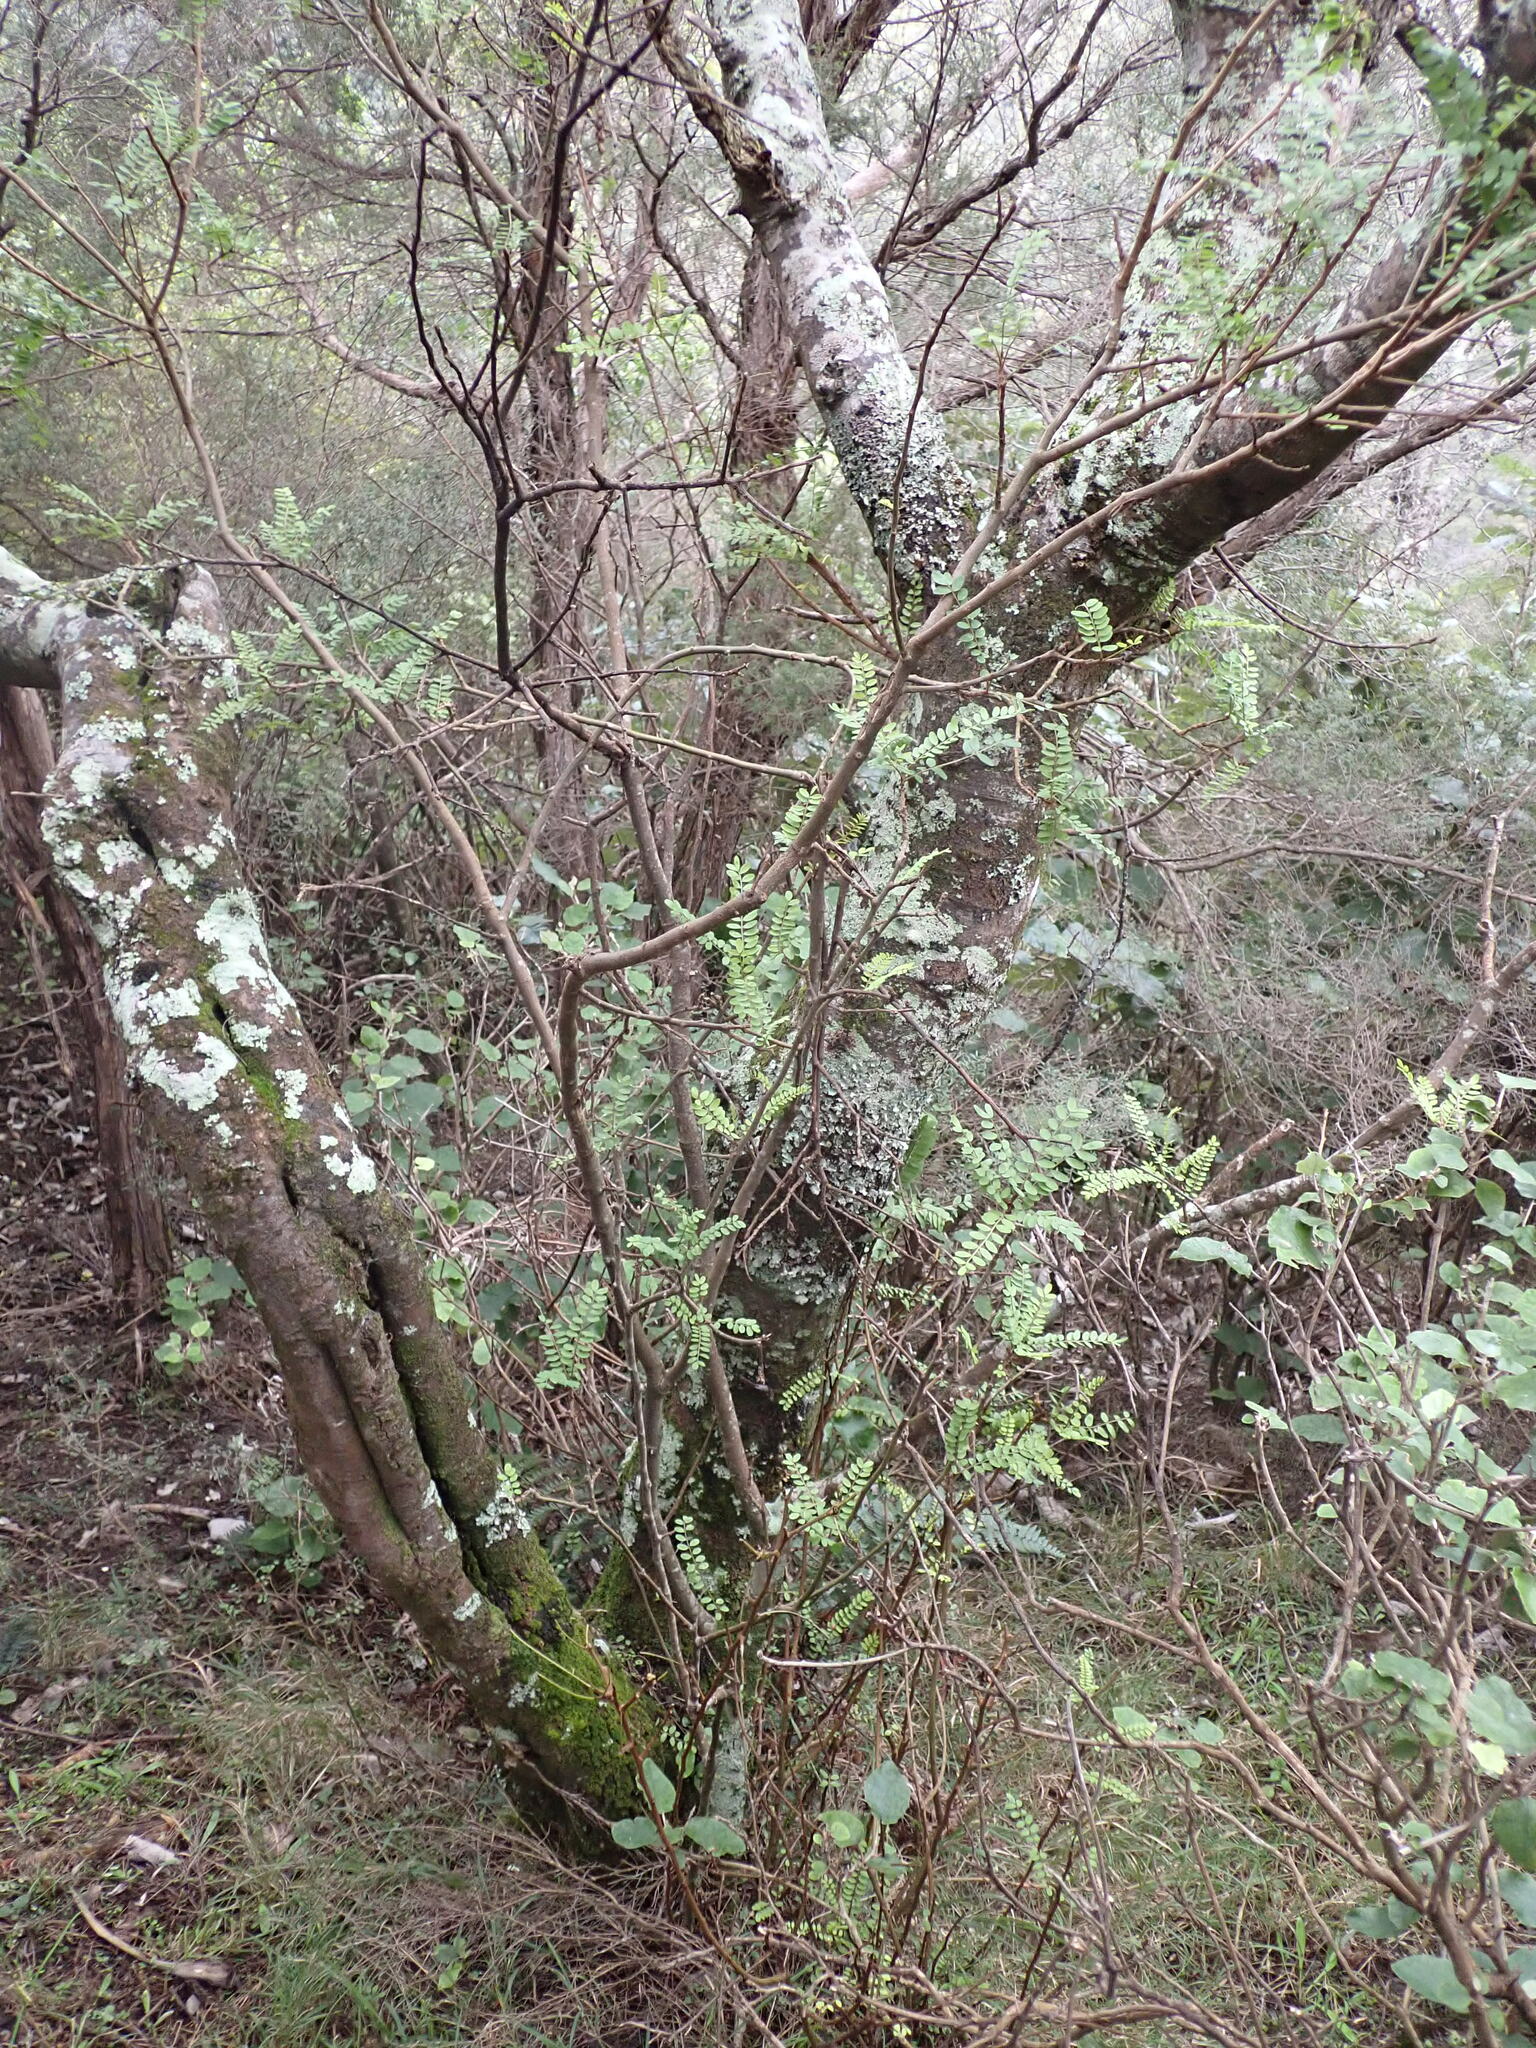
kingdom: Plantae
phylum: Tracheophyta
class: Magnoliopsida
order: Fabales
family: Fabaceae
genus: Sophora
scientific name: Sophora microphylla
